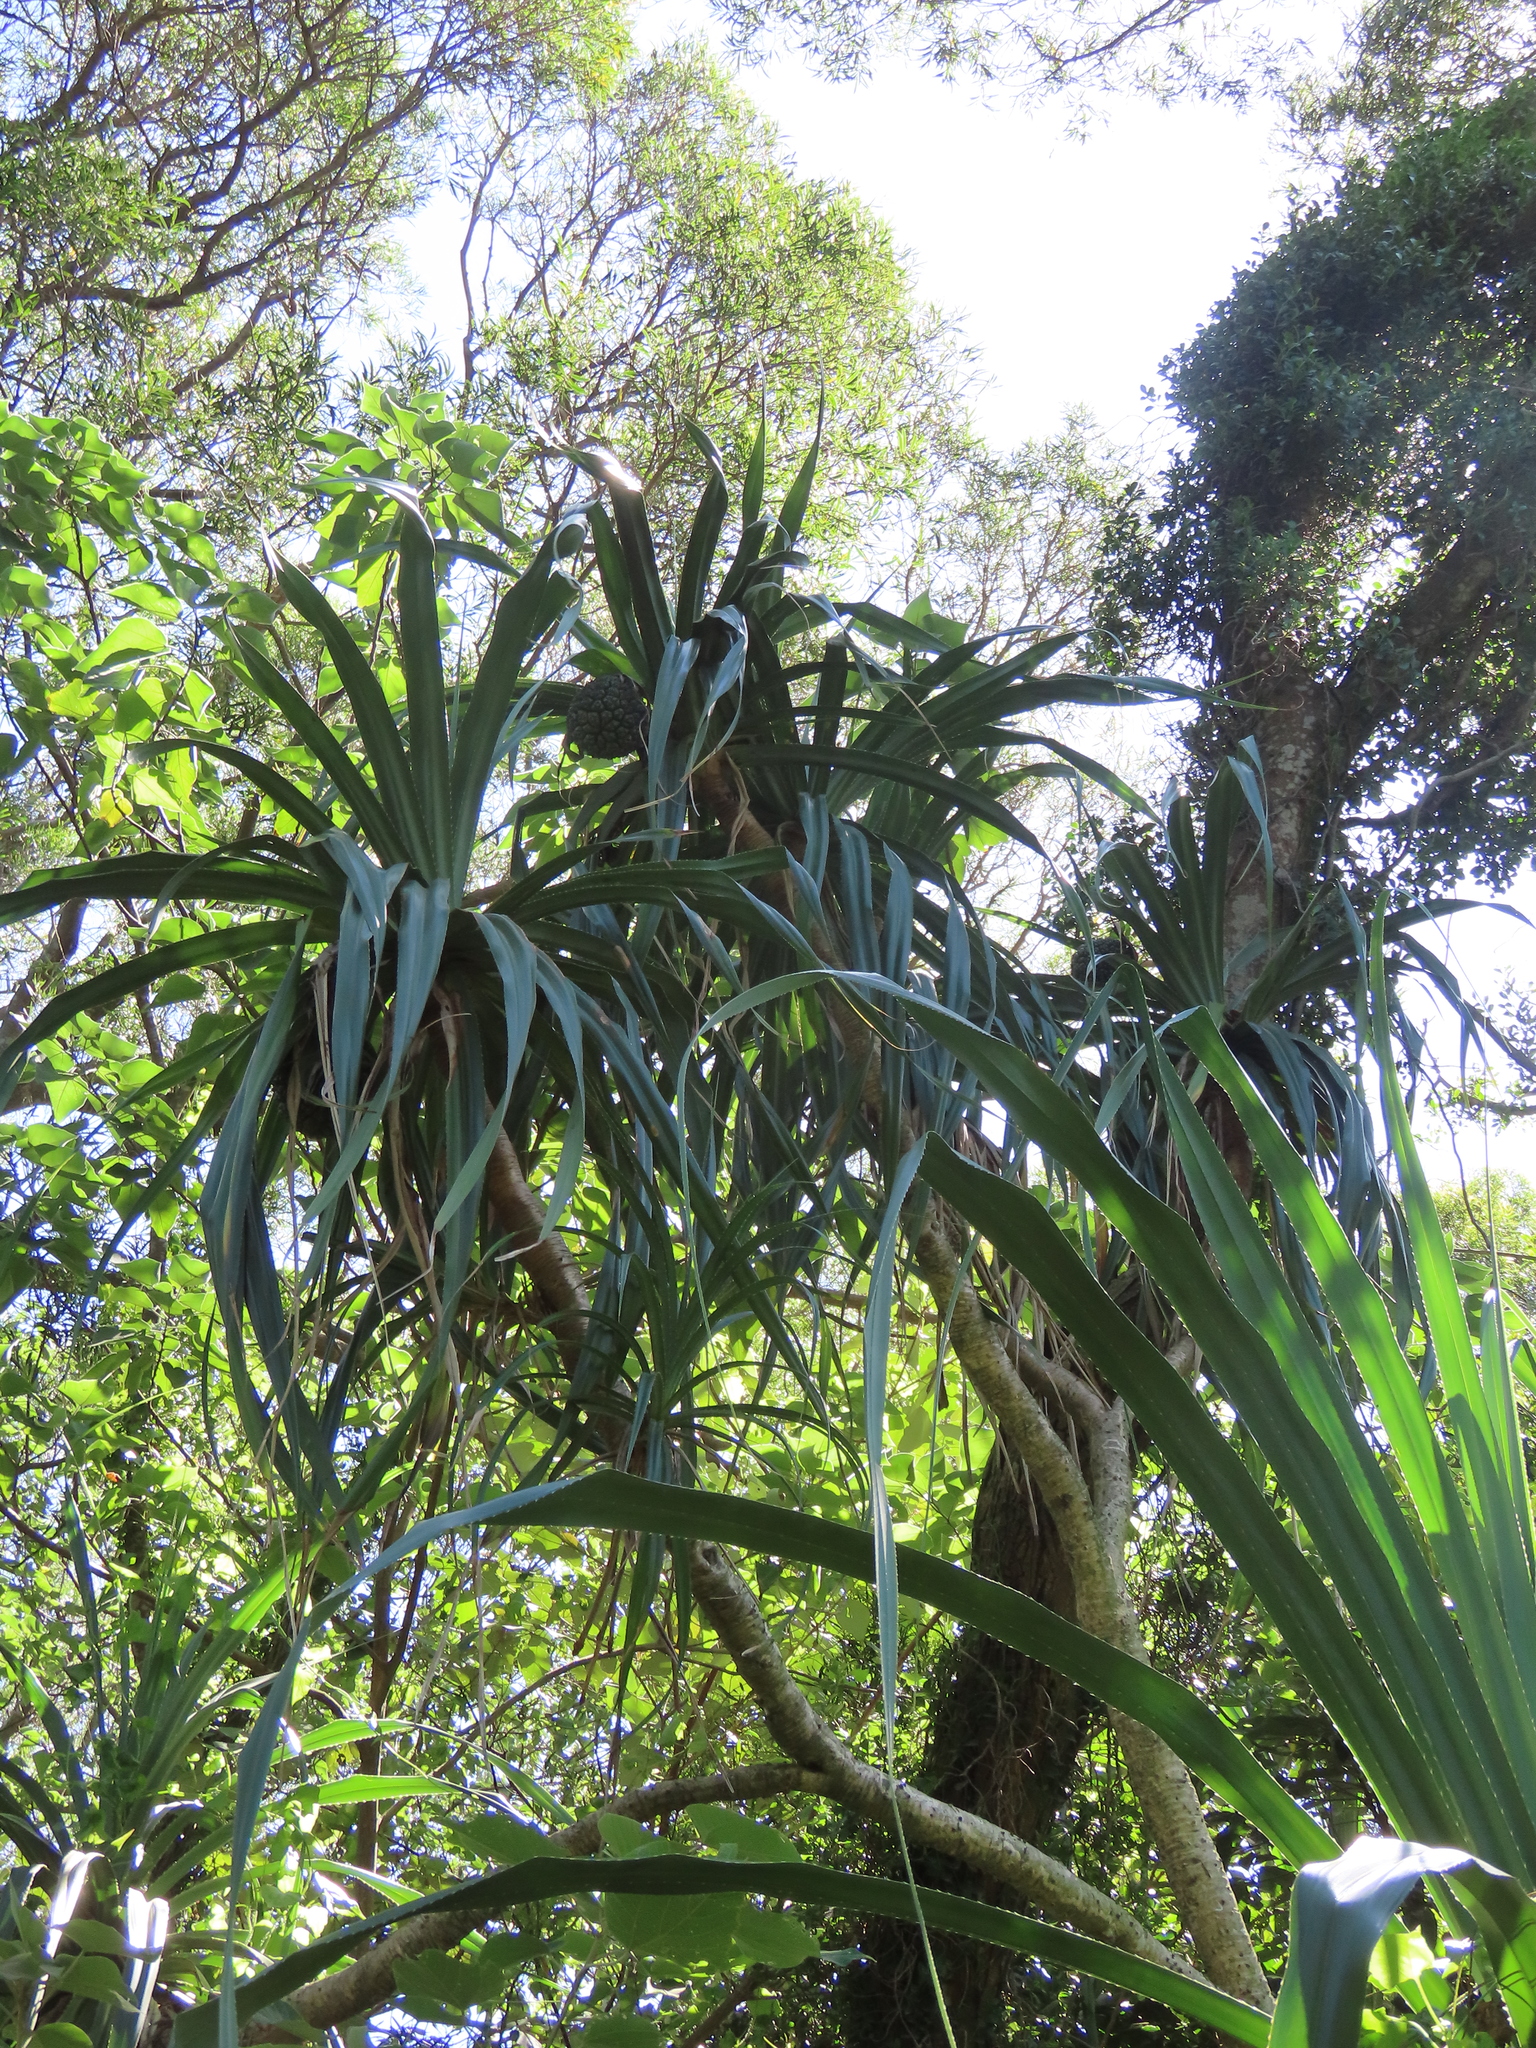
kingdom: Plantae
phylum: Tracheophyta
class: Liliopsida
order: Pandanales
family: Pandanaceae
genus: Pandanus
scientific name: Pandanus odorifer
